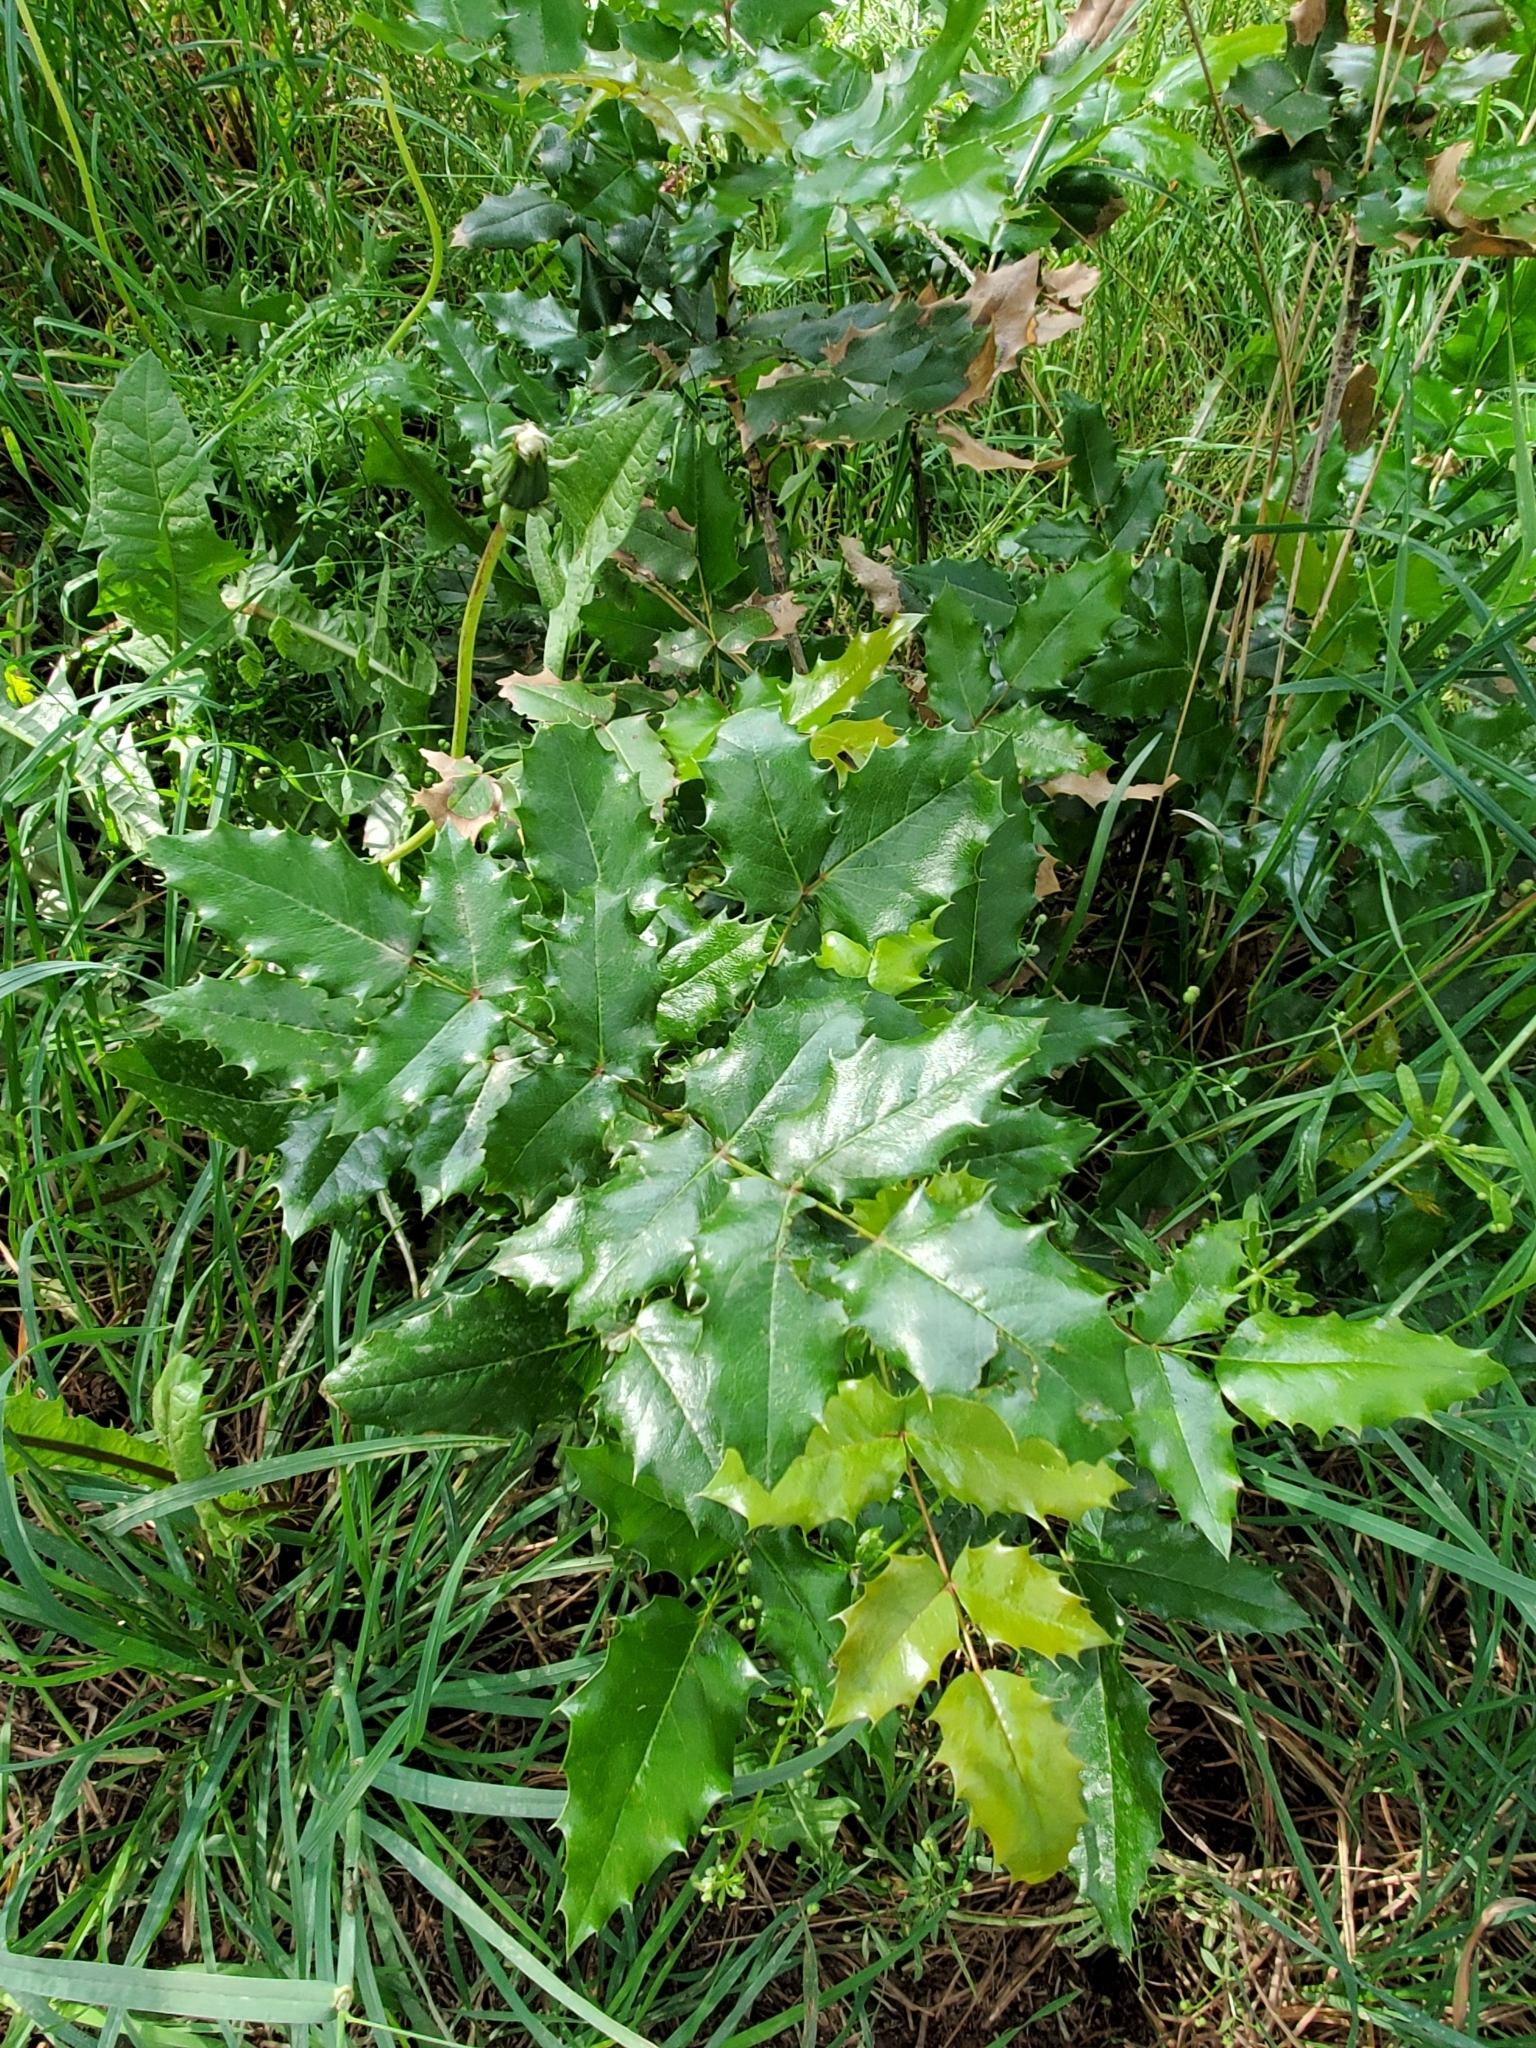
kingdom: Plantae
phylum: Tracheophyta
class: Magnoliopsida
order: Ranunculales
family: Berberidaceae
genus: Mahonia
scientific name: Mahonia aquifolium
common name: Oregon-grape
